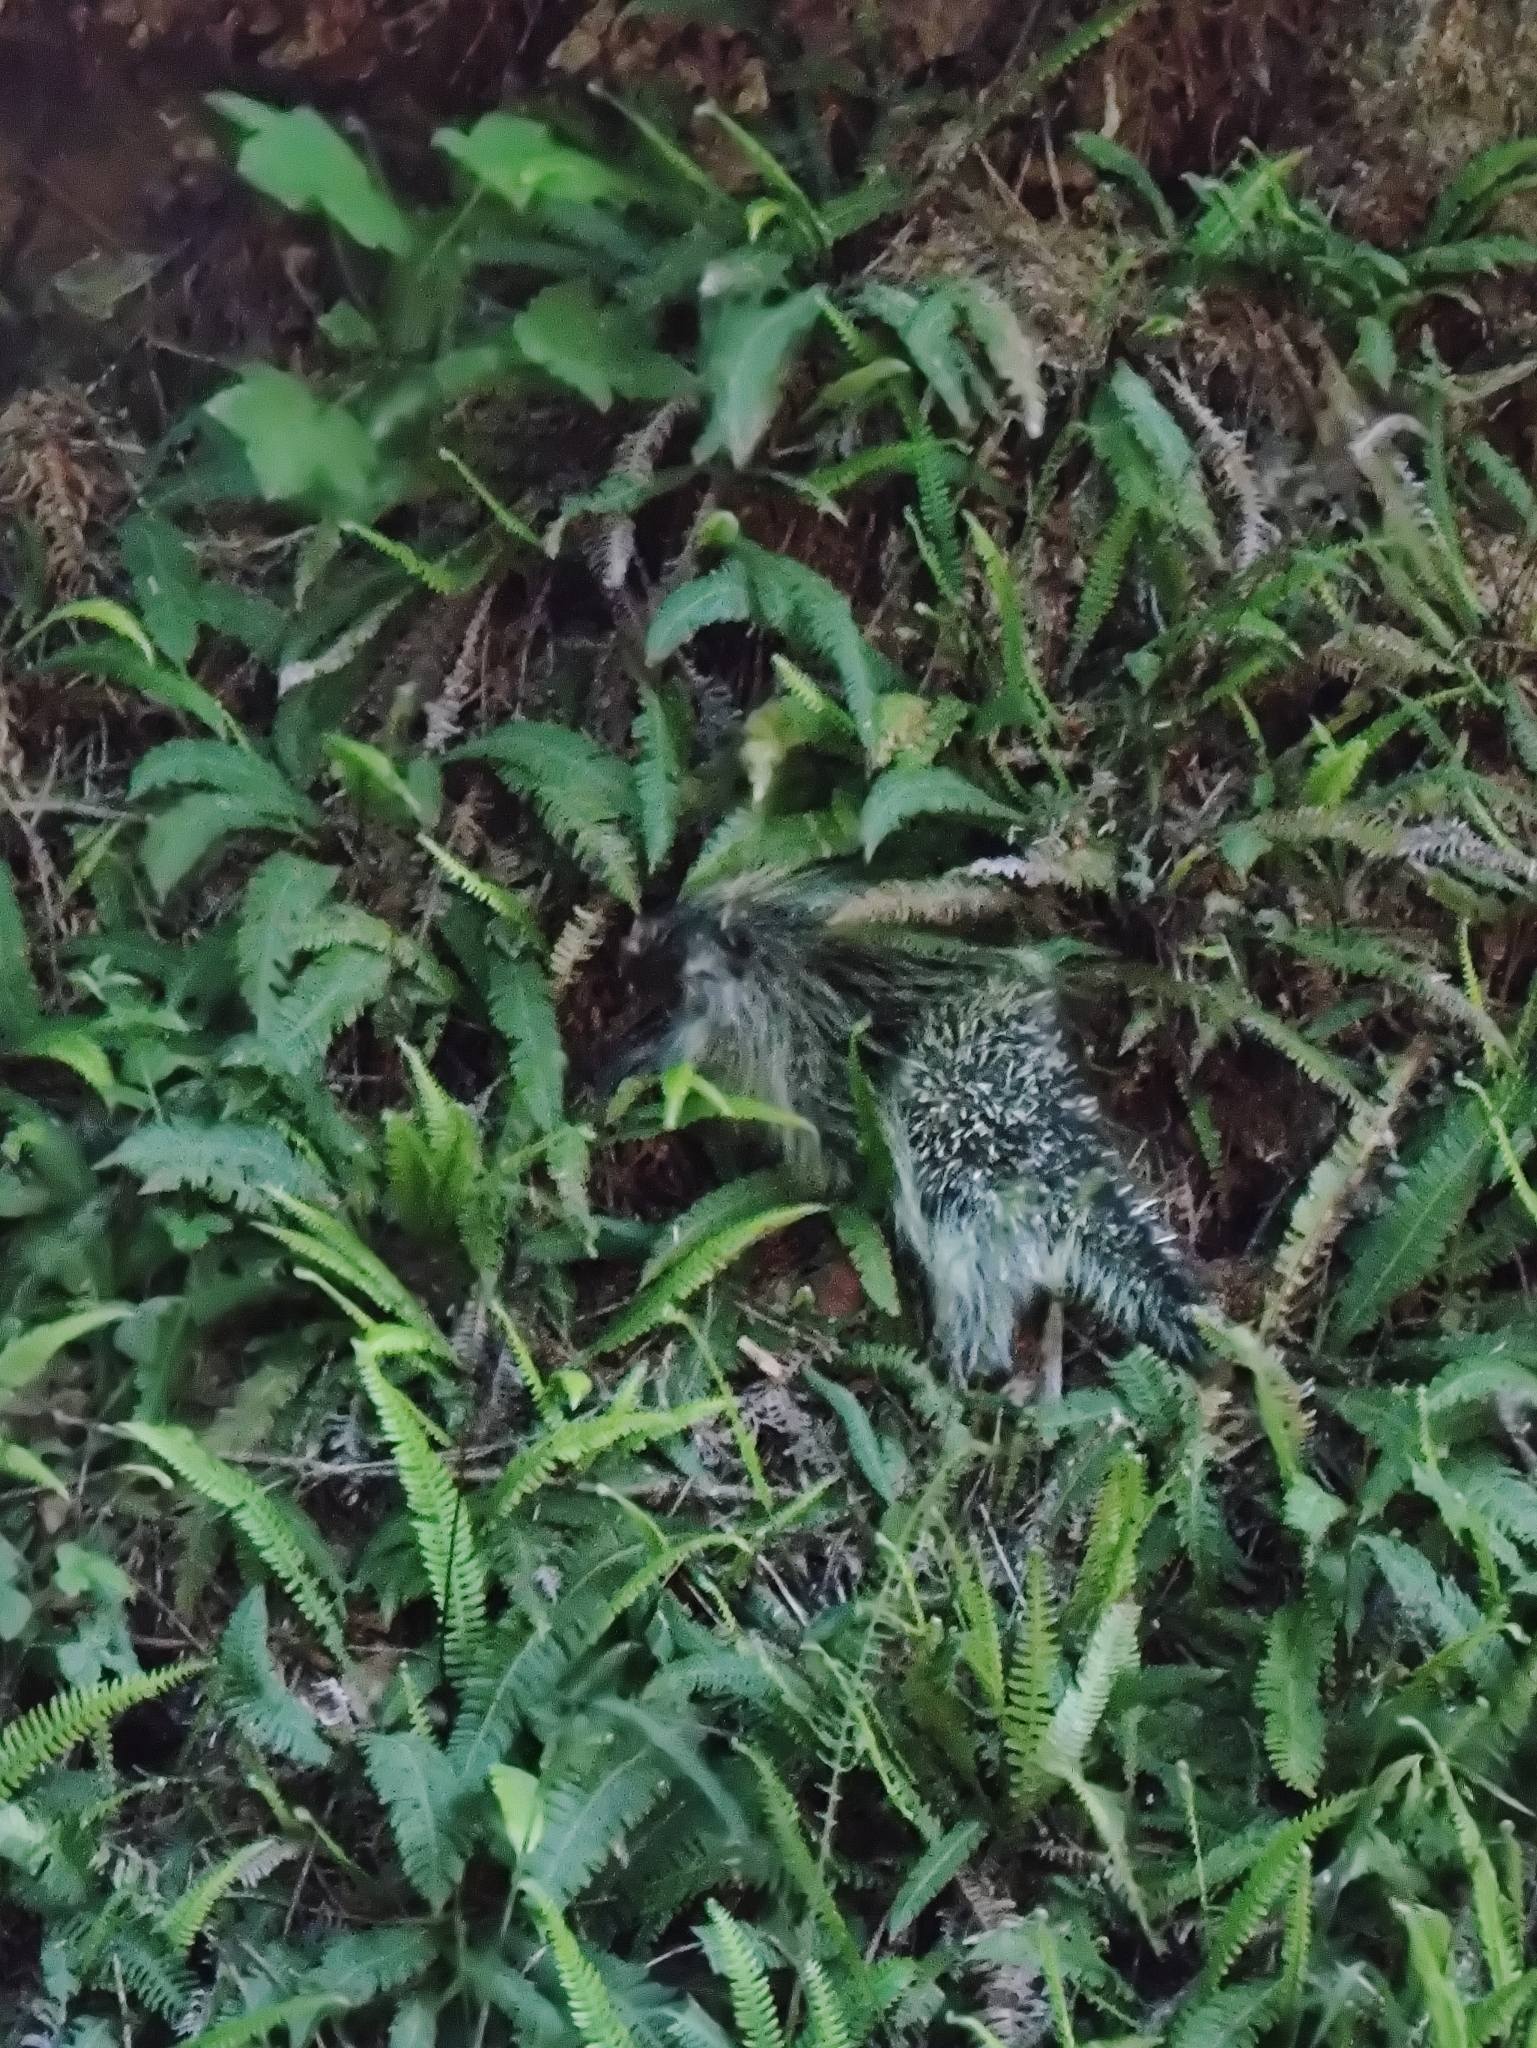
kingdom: Animalia
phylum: Chordata
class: Mammalia
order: Rodentia
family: Erethizontidae
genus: Erethizon
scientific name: Erethizon dorsatus
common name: North american porcupine
